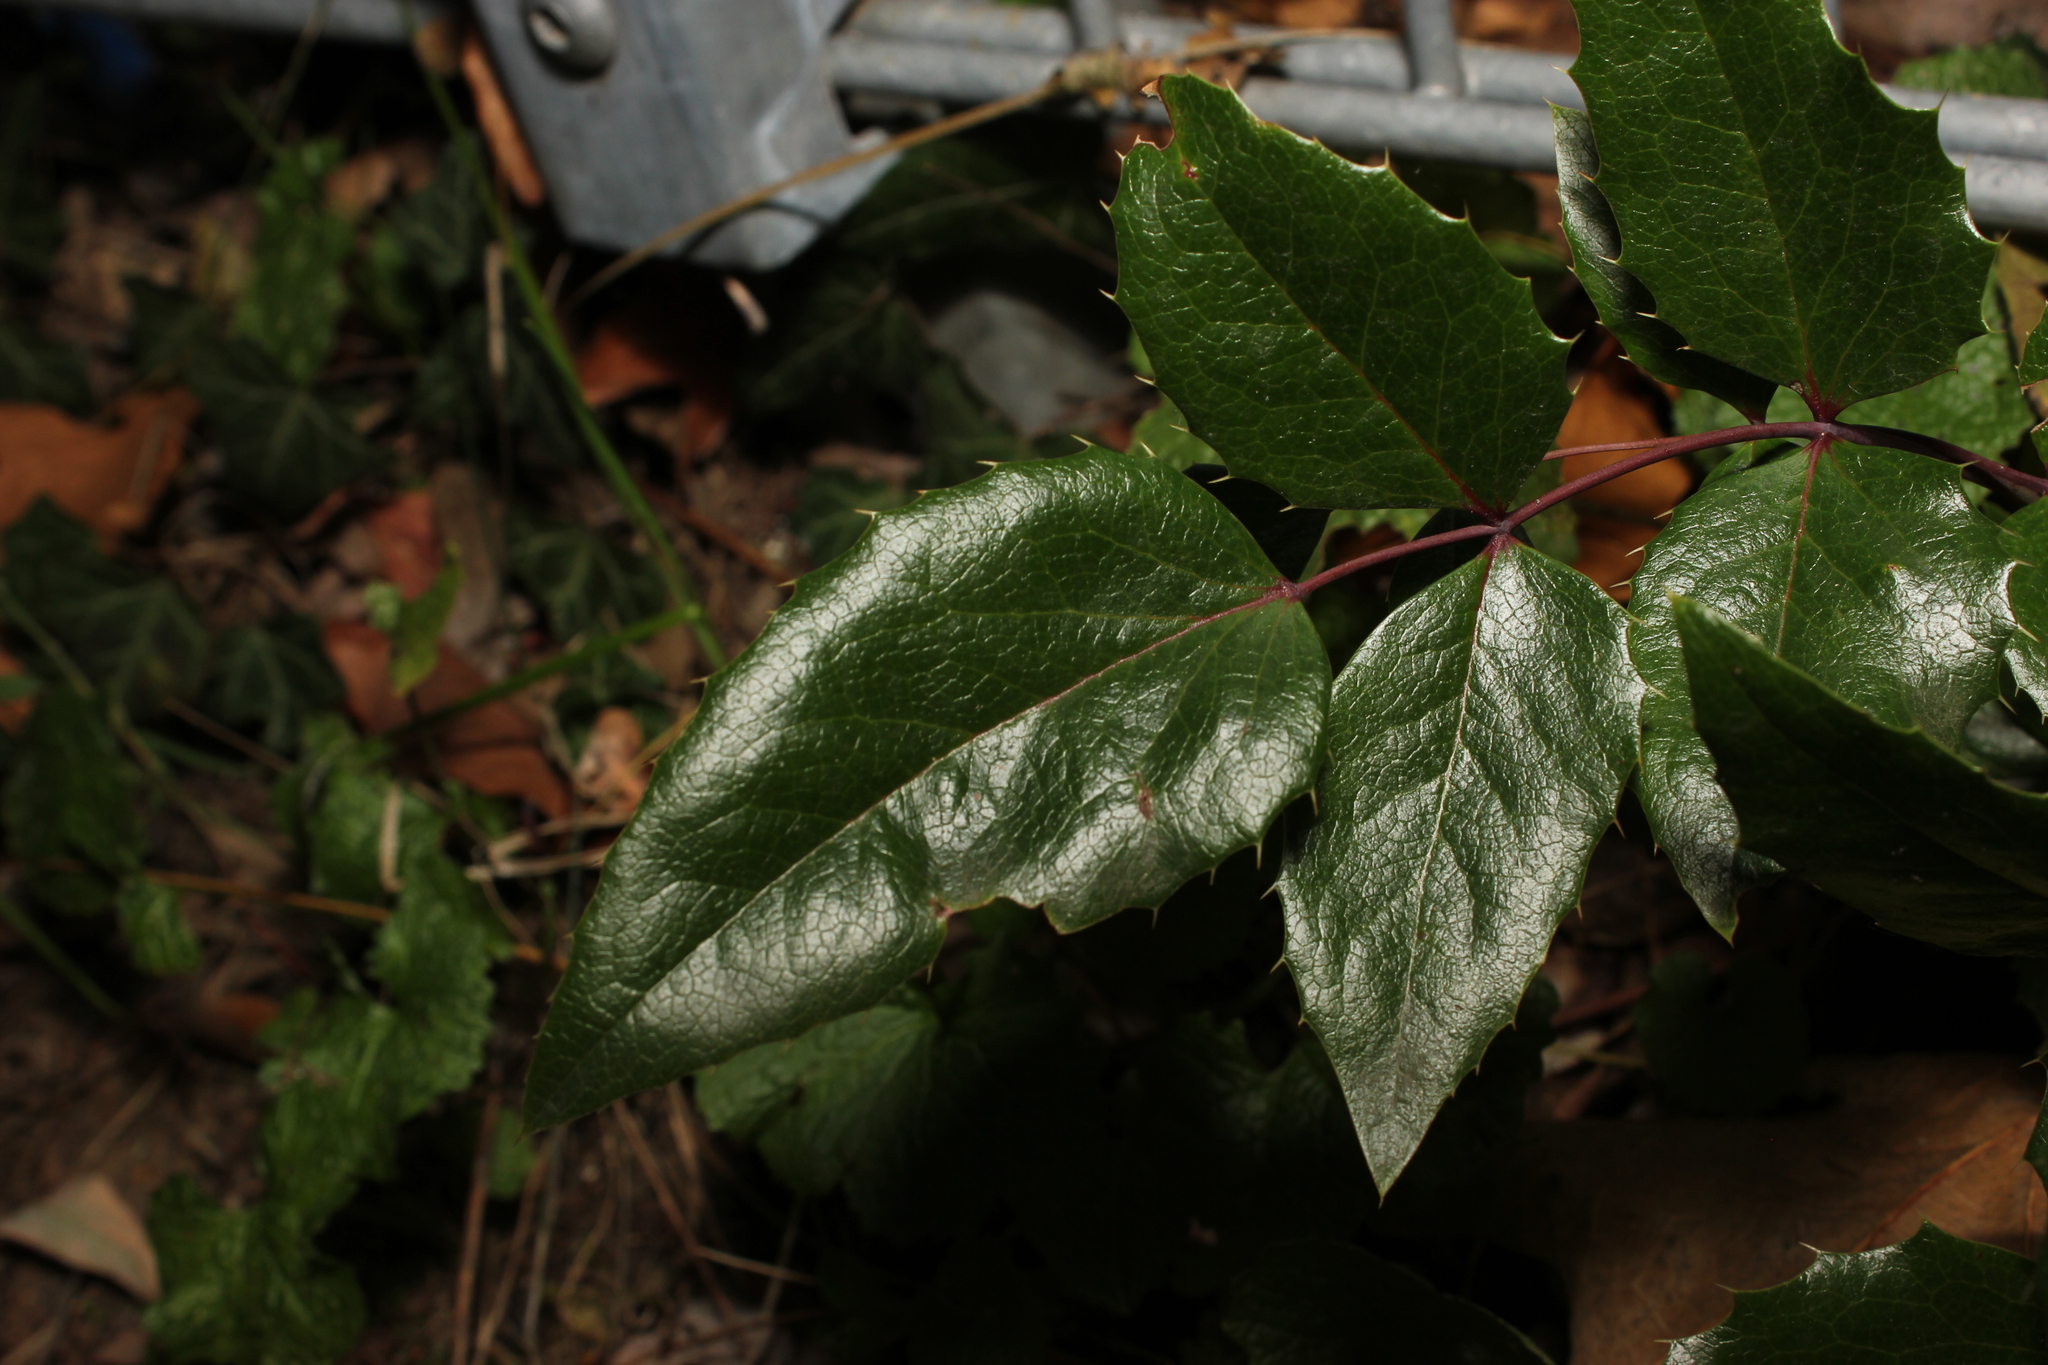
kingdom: Plantae
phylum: Tracheophyta
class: Magnoliopsida
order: Ranunculales
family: Berberidaceae
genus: Mahonia
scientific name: Mahonia aquifolium
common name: Oregon-grape
